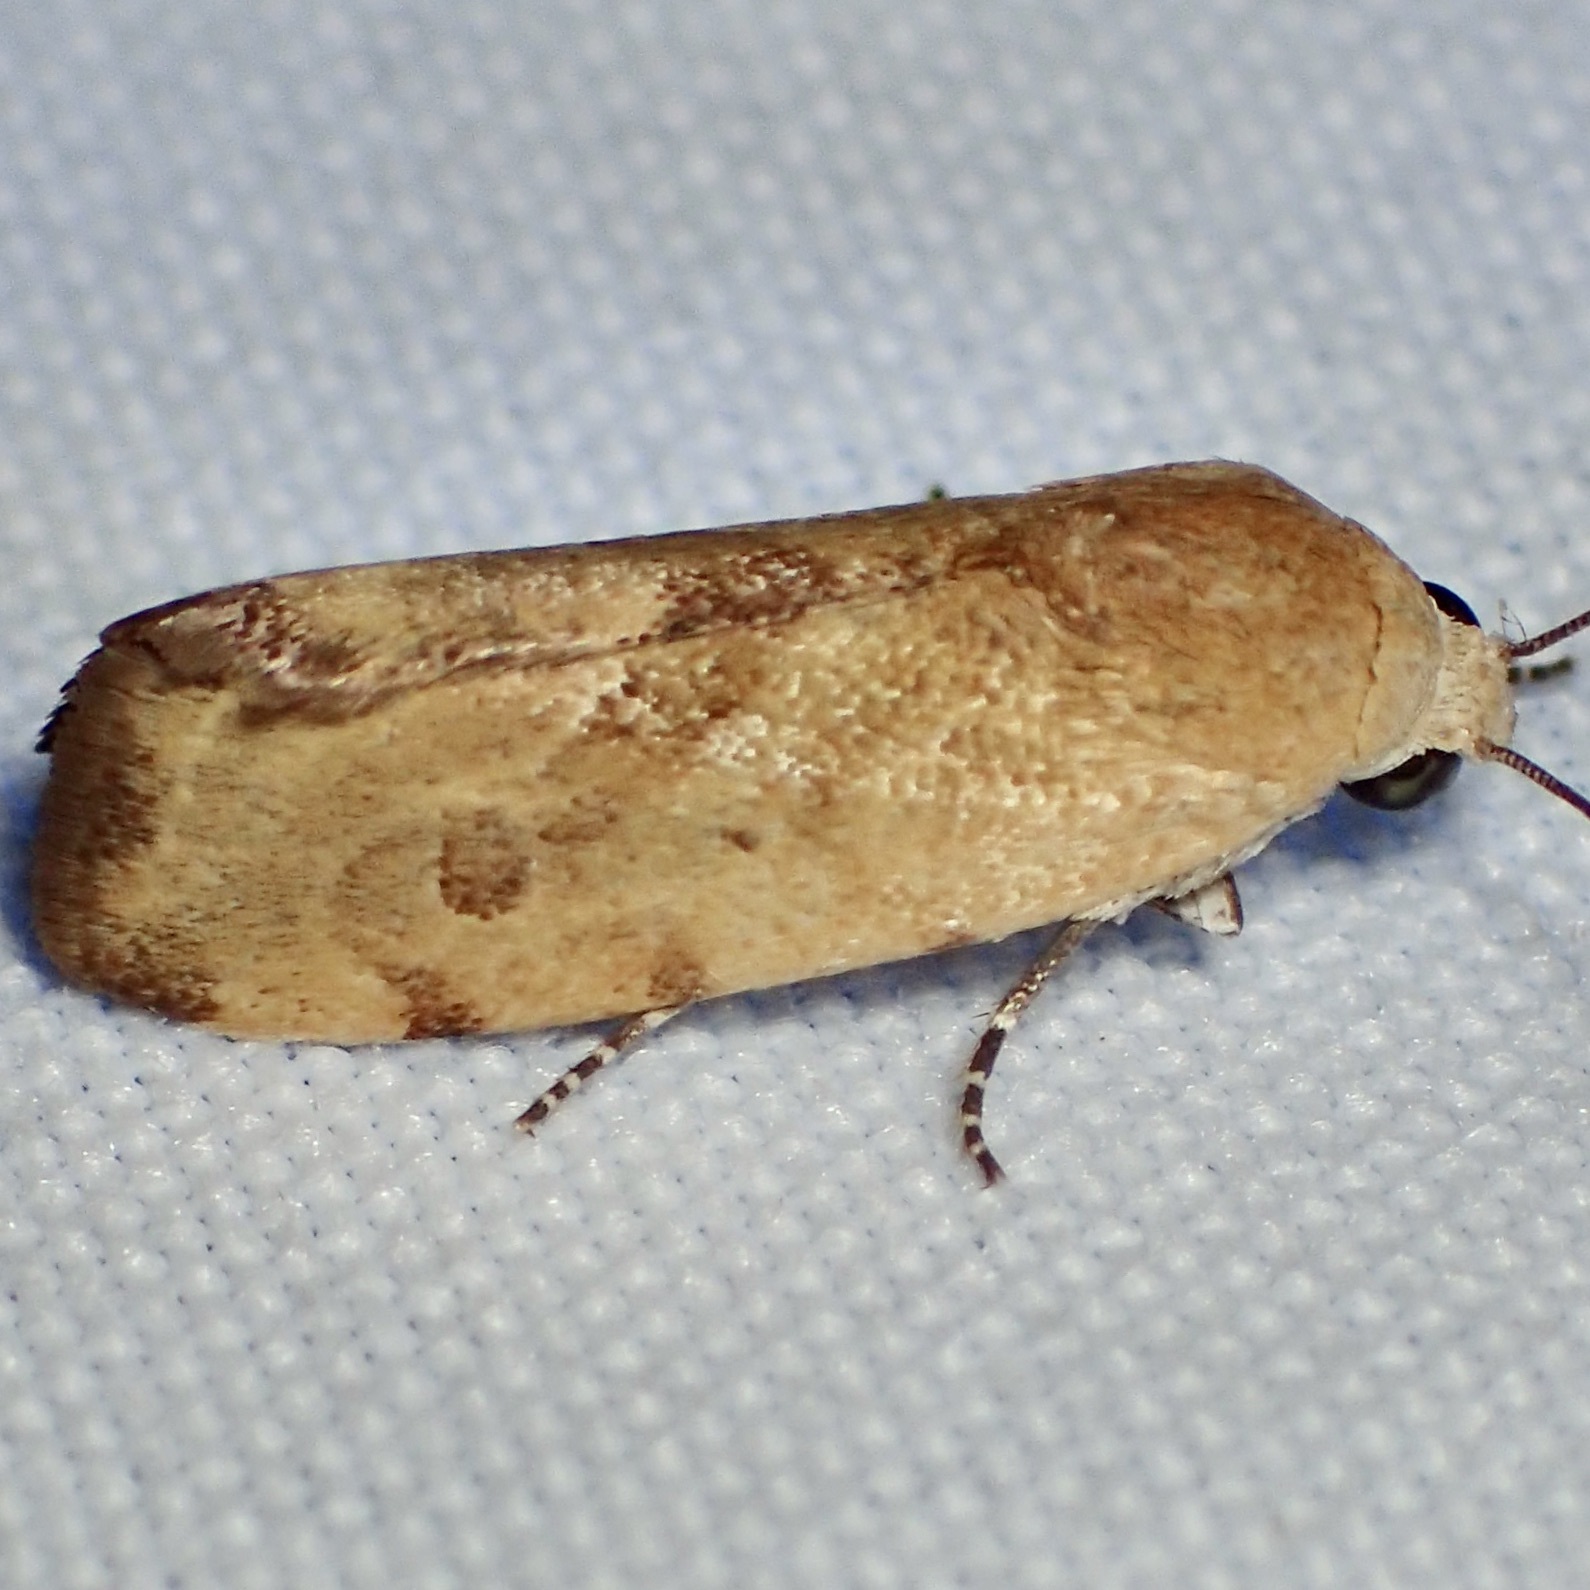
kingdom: Animalia
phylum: Arthropoda
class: Insecta
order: Lepidoptera
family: Noctuidae
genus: Acontia
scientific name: Acontia fasciatella
